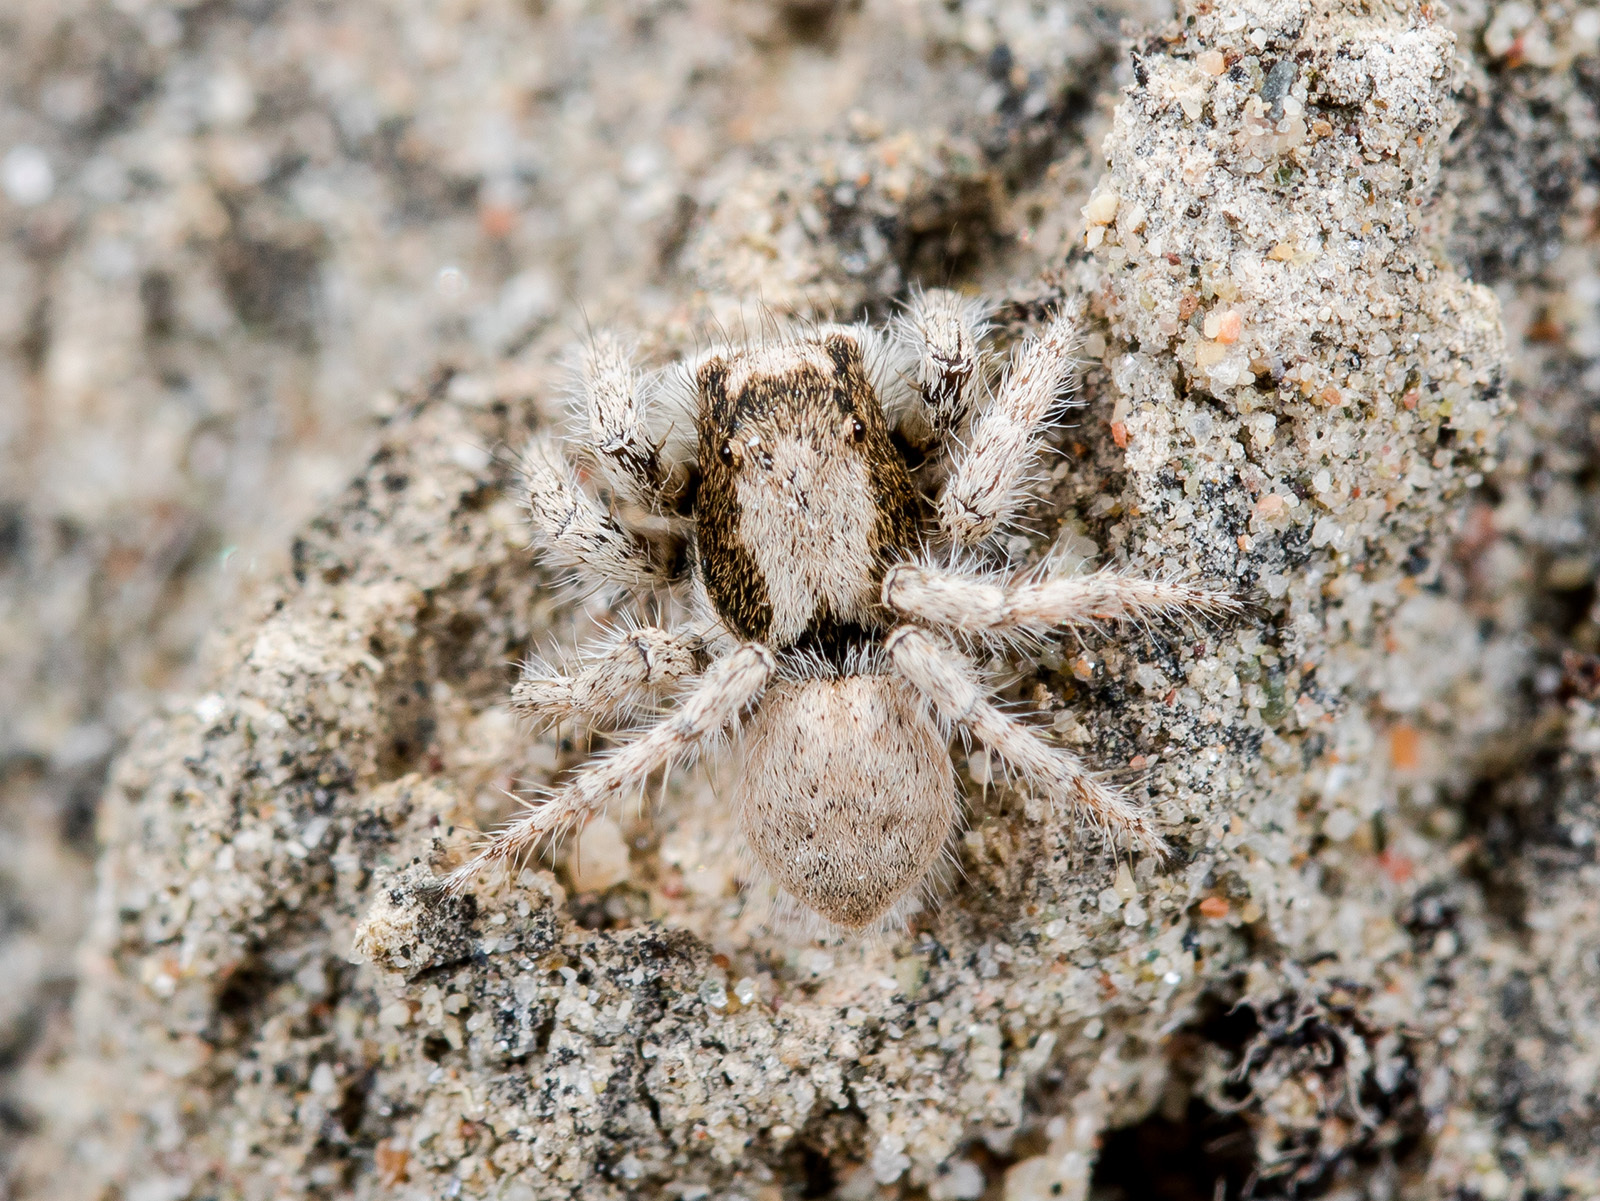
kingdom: Animalia
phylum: Arthropoda
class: Arachnida
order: Araneae
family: Salticidae
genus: Aelurillus
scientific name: Aelurillus concolor
